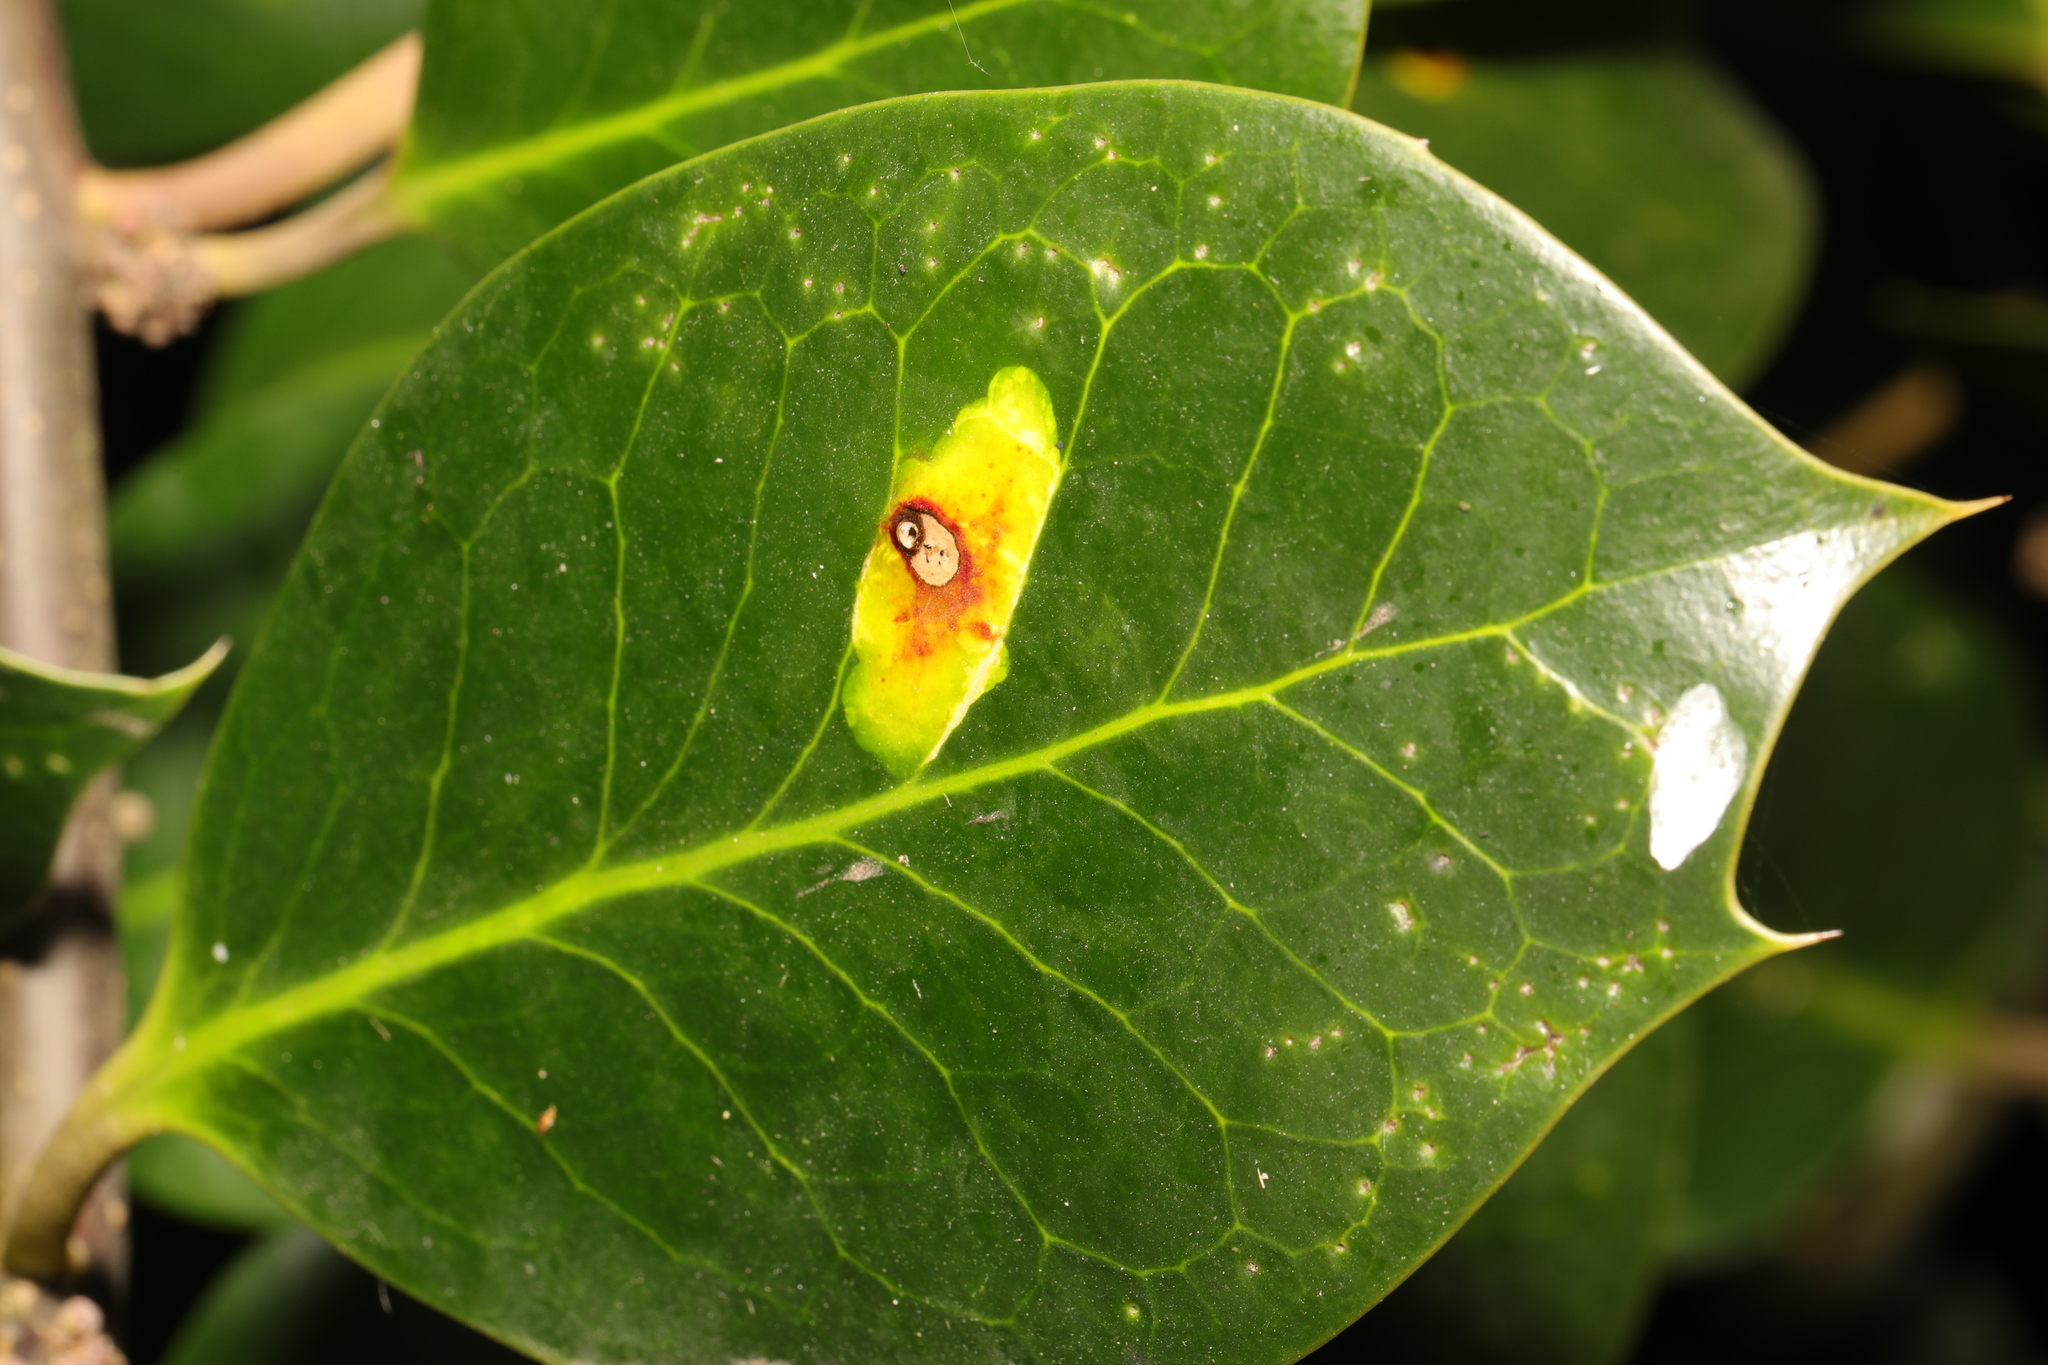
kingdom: Animalia
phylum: Arthropoda
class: Insecta
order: Diptera
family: Agromyzidae
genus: Phytomyza
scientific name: Phytomyza ilicis
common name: Holly leafminer
